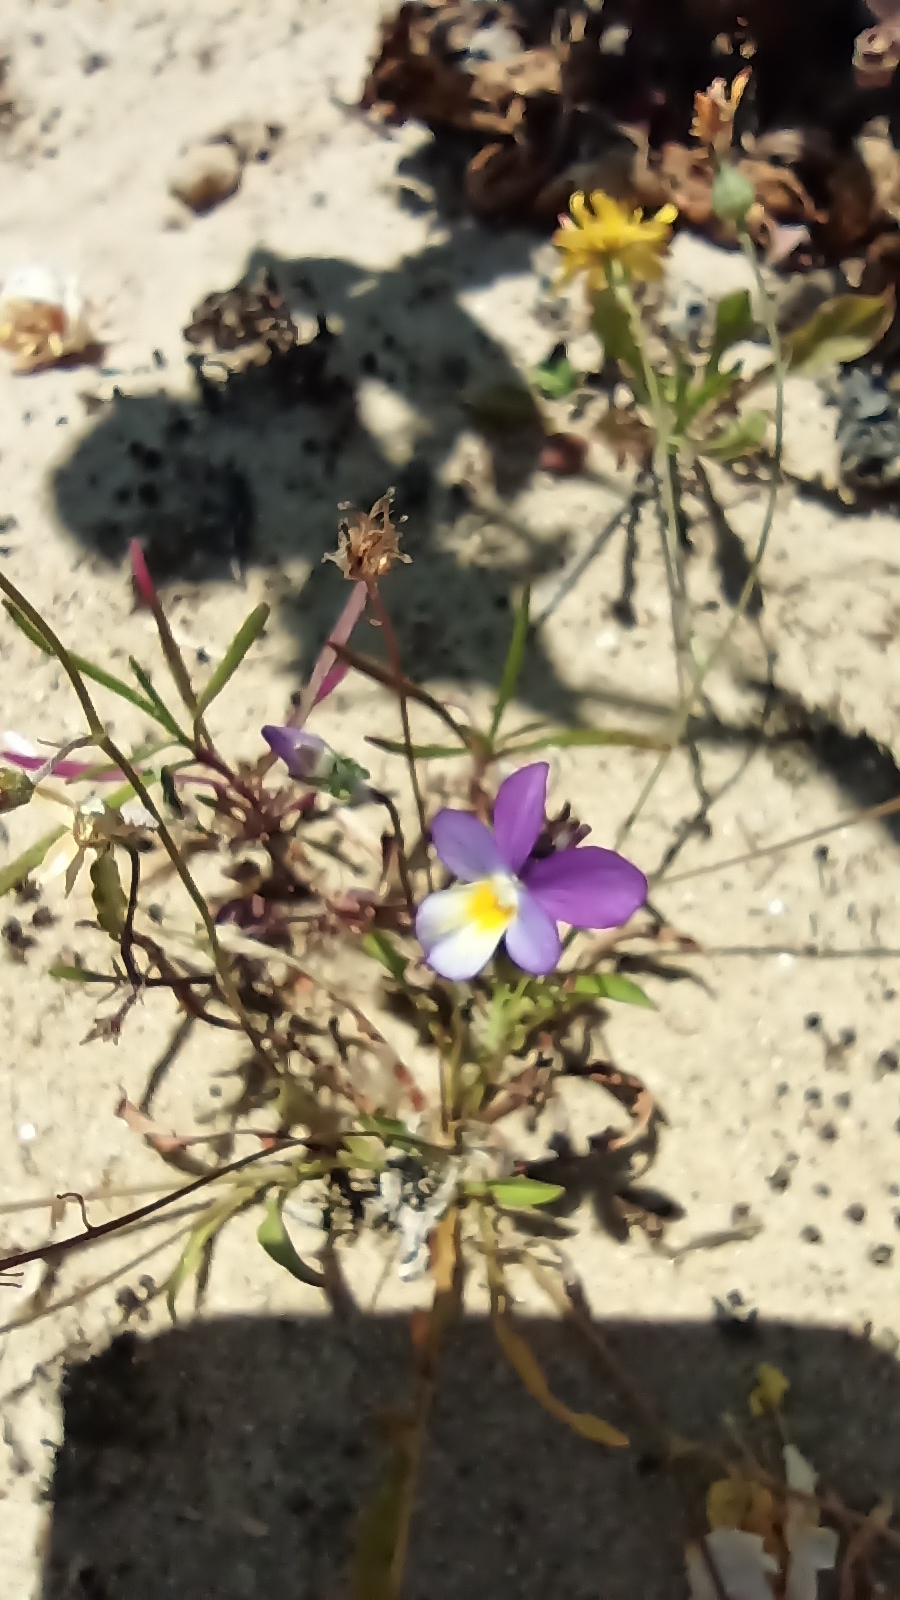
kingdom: Plantae
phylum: Tracheophyta
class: Magnoliopsida
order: Malpighiales
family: Violaceae
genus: Viola
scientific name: Viola tricolor
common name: Pansy
